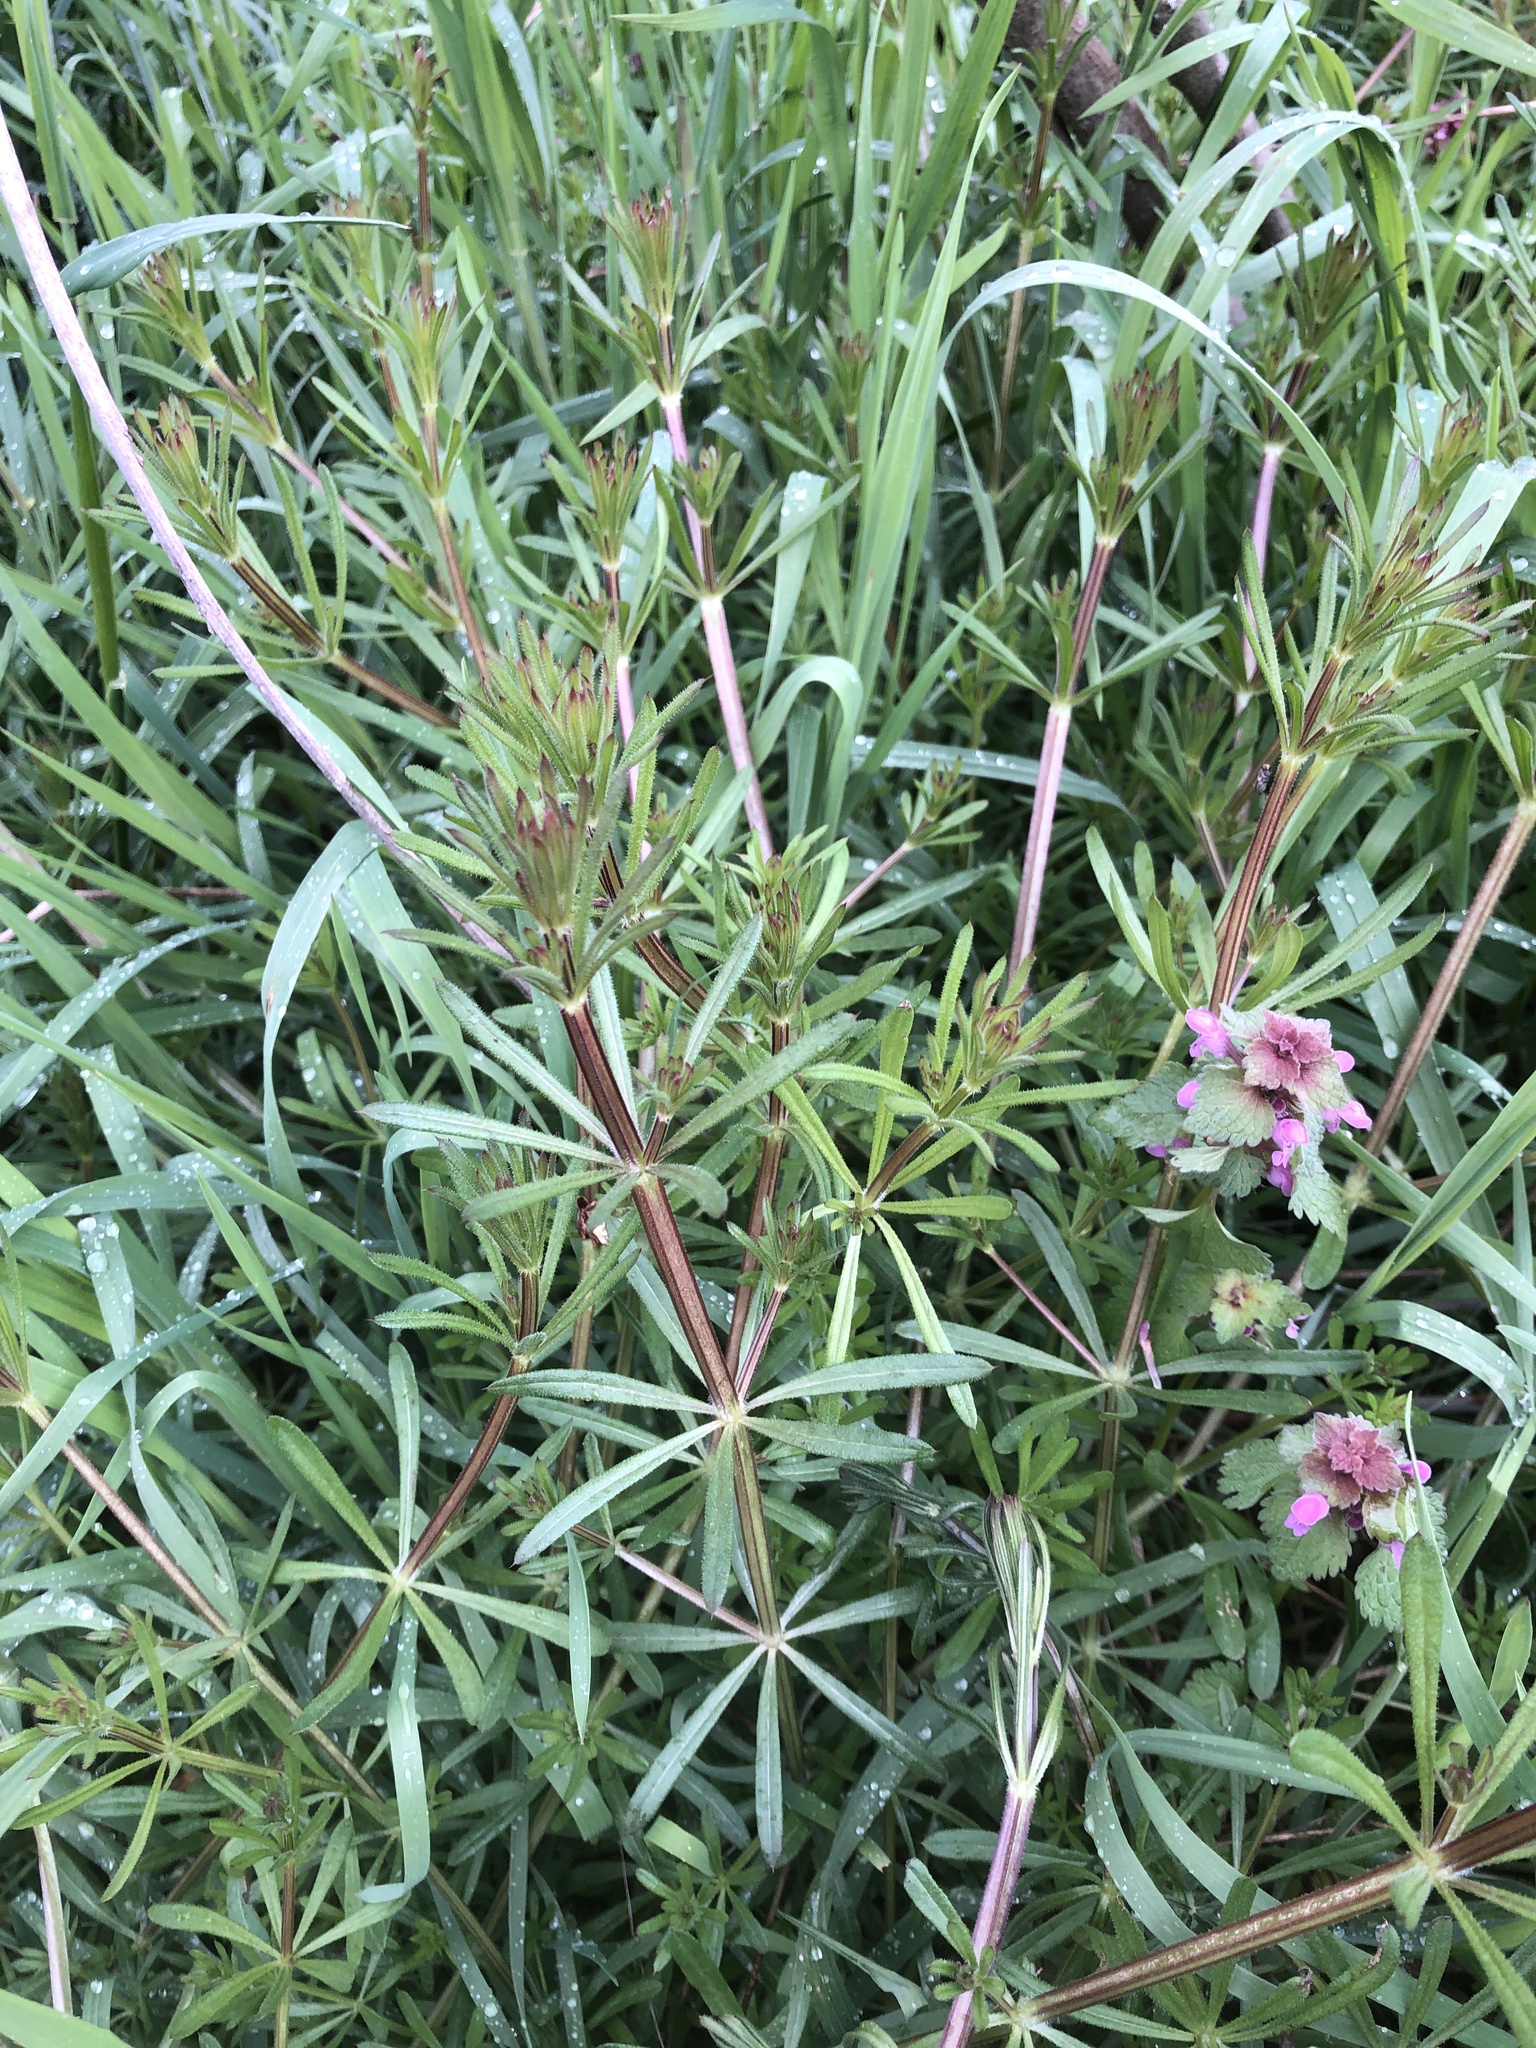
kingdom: Plantae
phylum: Tracheophyta
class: Magnoliopsida
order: Gentianales
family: Rubiaceae
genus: Galium
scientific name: Galium aparine
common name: Cleavers
